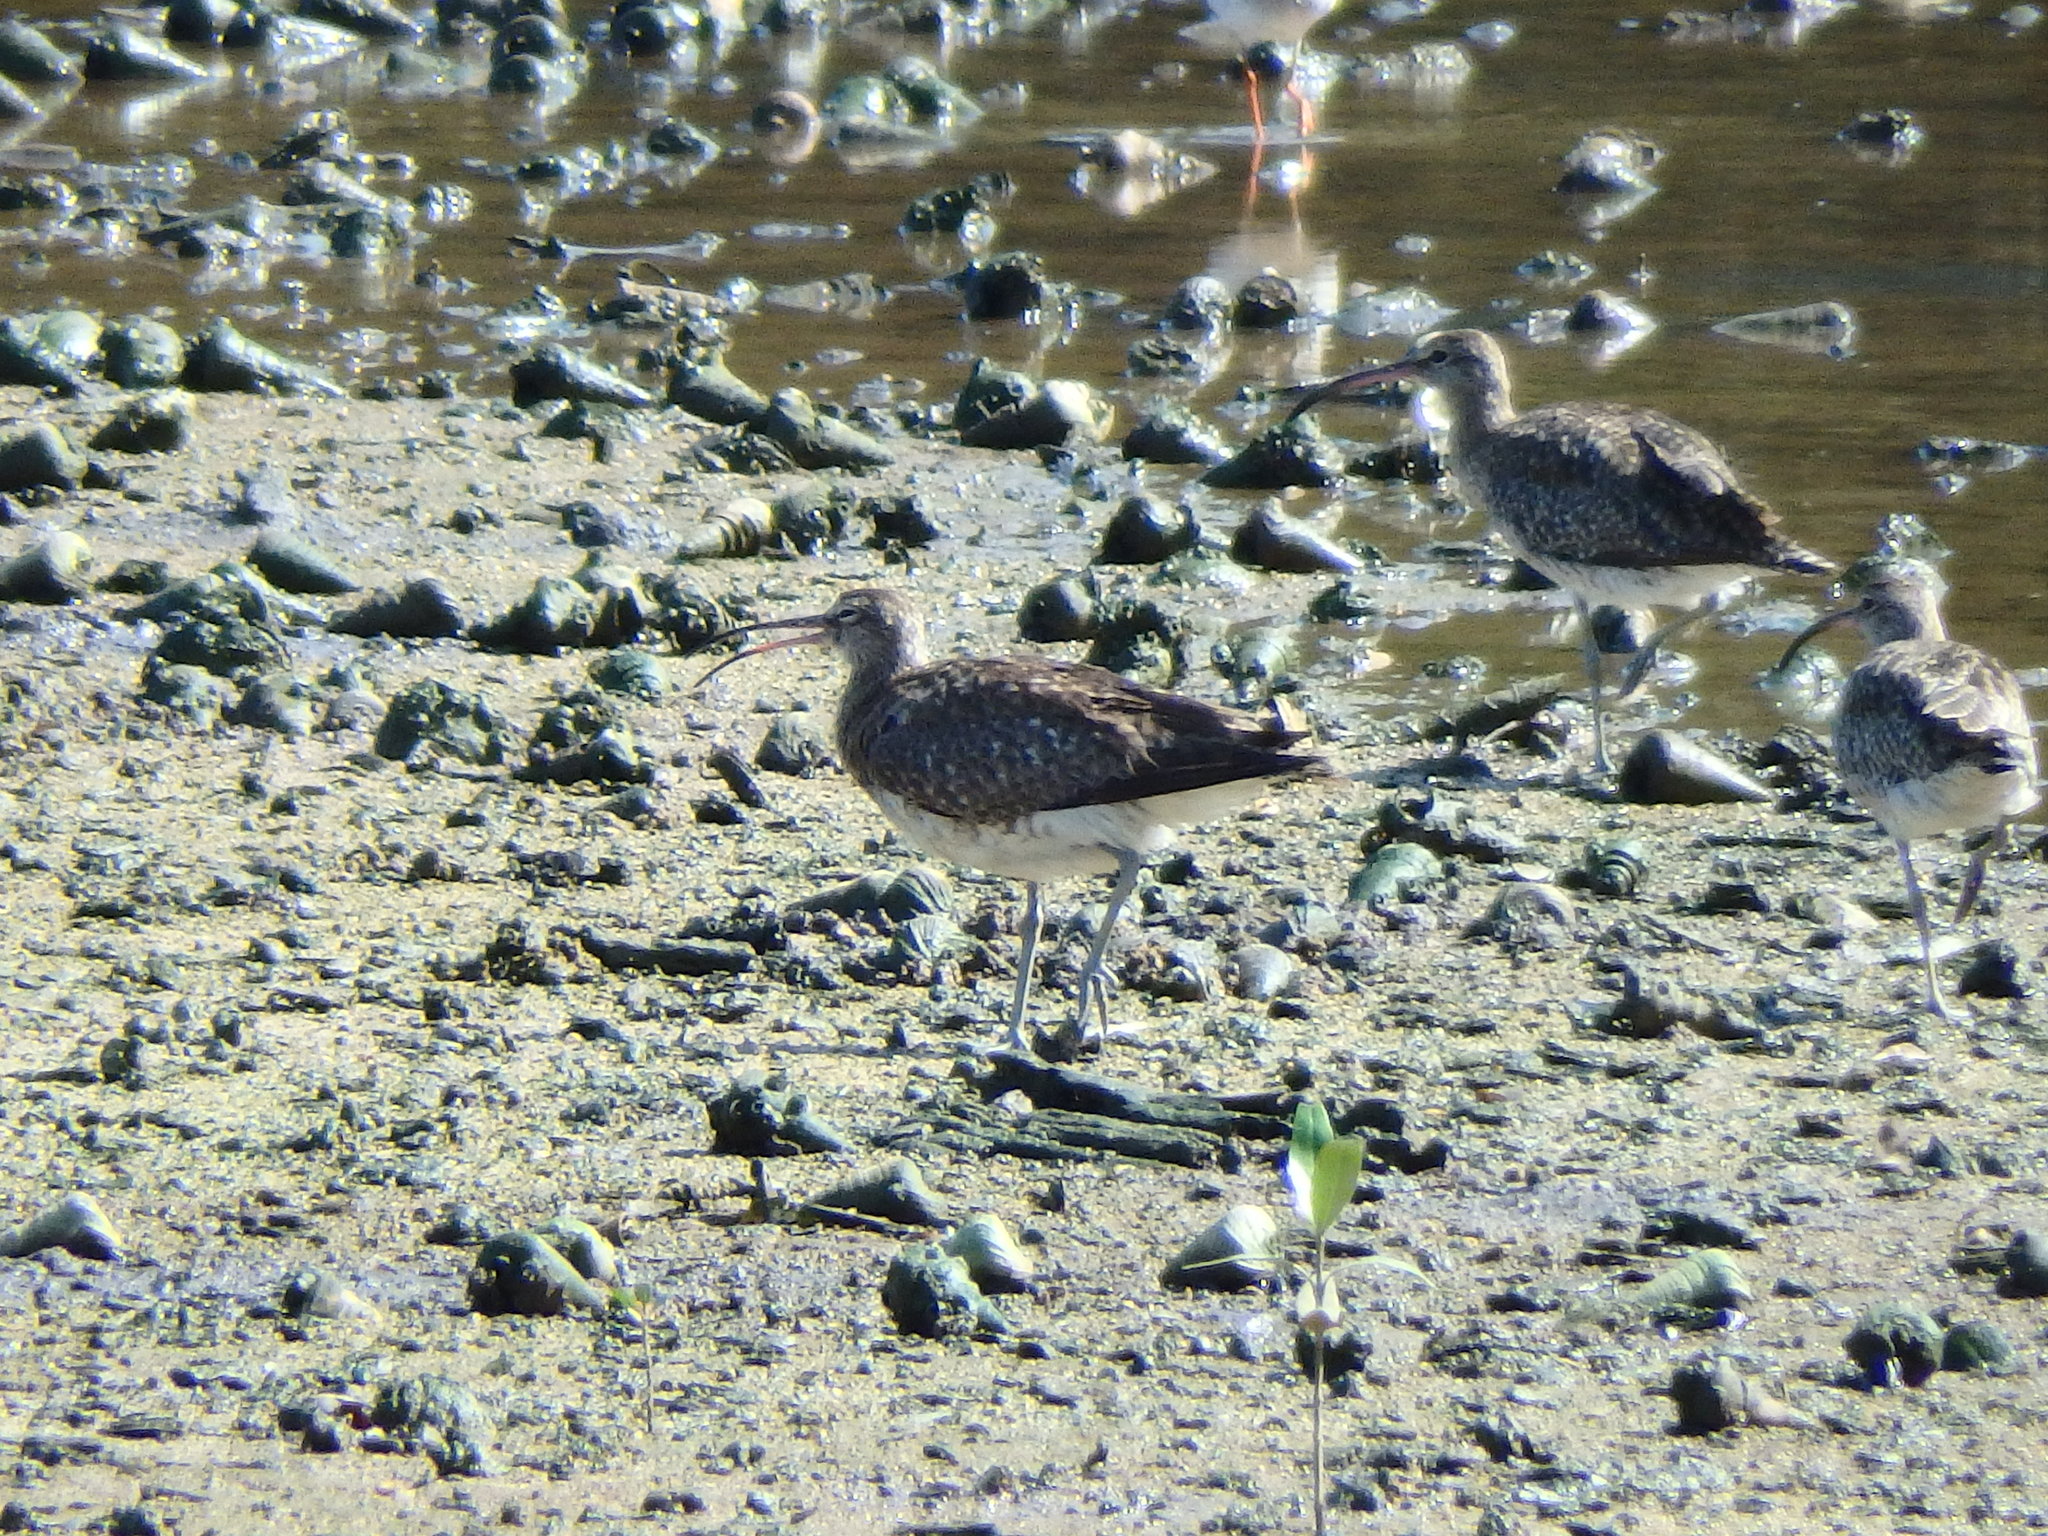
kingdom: Animalia
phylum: Chordata
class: Aves
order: Charadriiformes
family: Scolopacidae
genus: Numenius
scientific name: Numenius phaeopus
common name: Whimbrel
